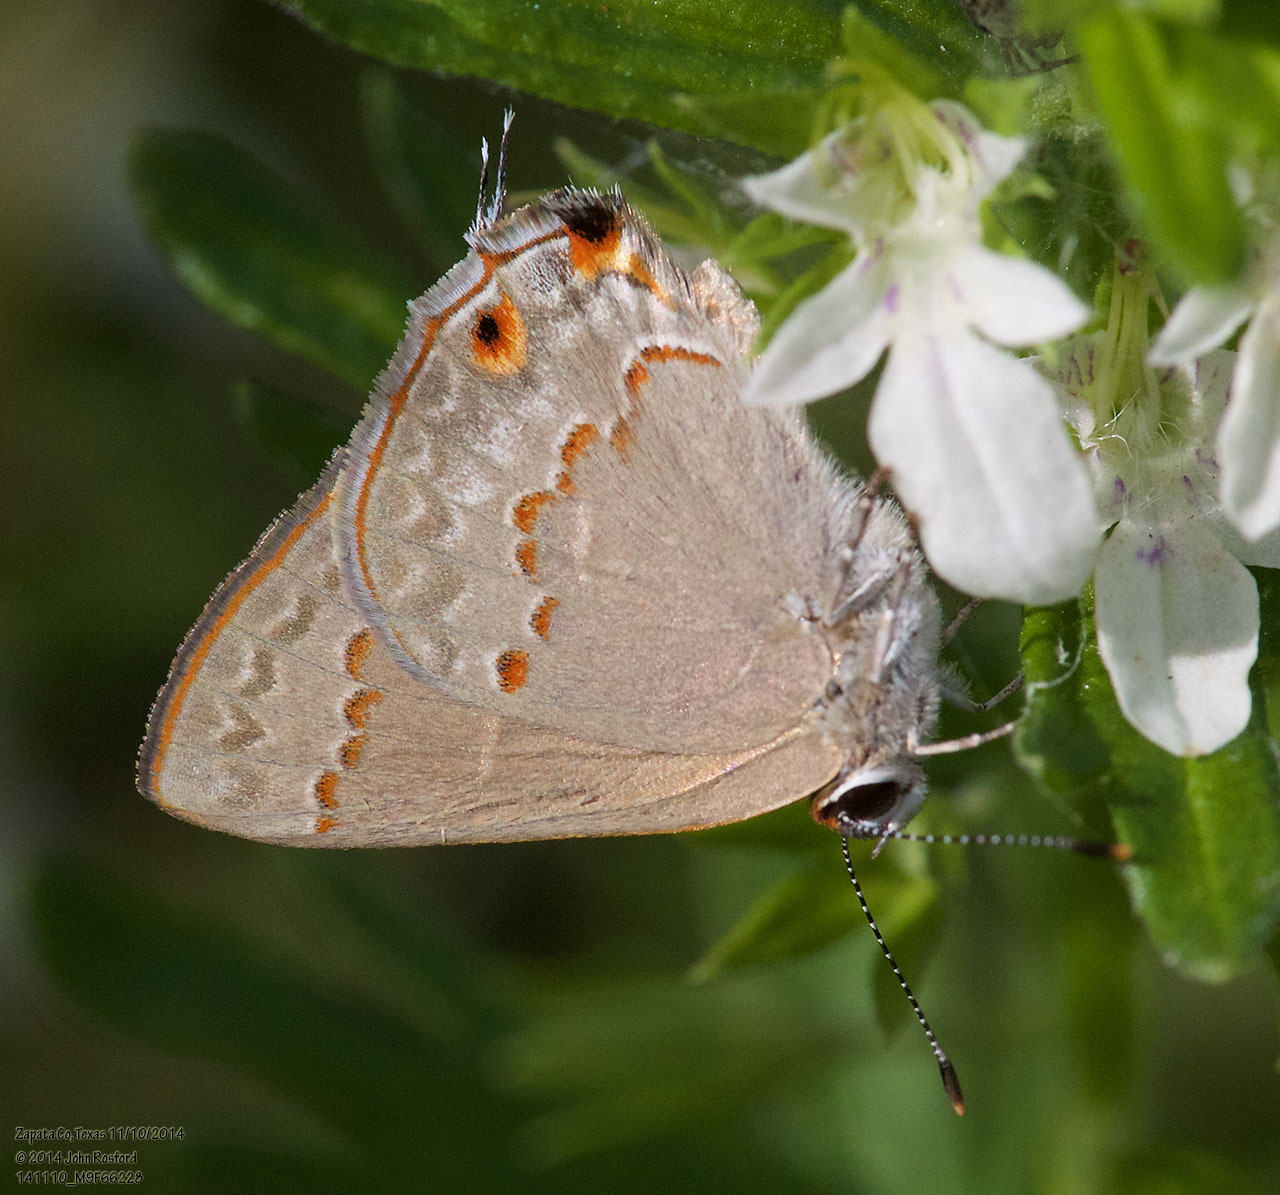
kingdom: Animalia
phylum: Arthropoda
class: Insecta
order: Lepidoptera
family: Lycaenidae
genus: Thecla
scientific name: Thecla rufofusca
